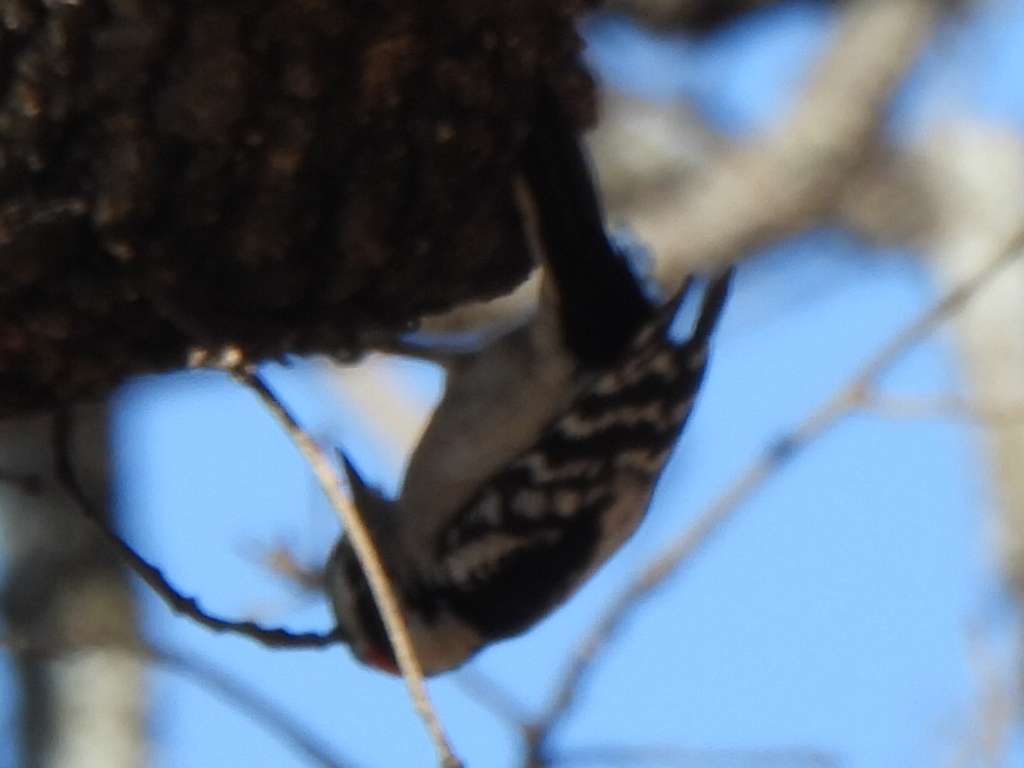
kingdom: Animalia
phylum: Chordata
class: Aves
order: Piciformes
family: Picidae
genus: Dryobates
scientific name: Dryobates pubescens
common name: Downy woodpecker
